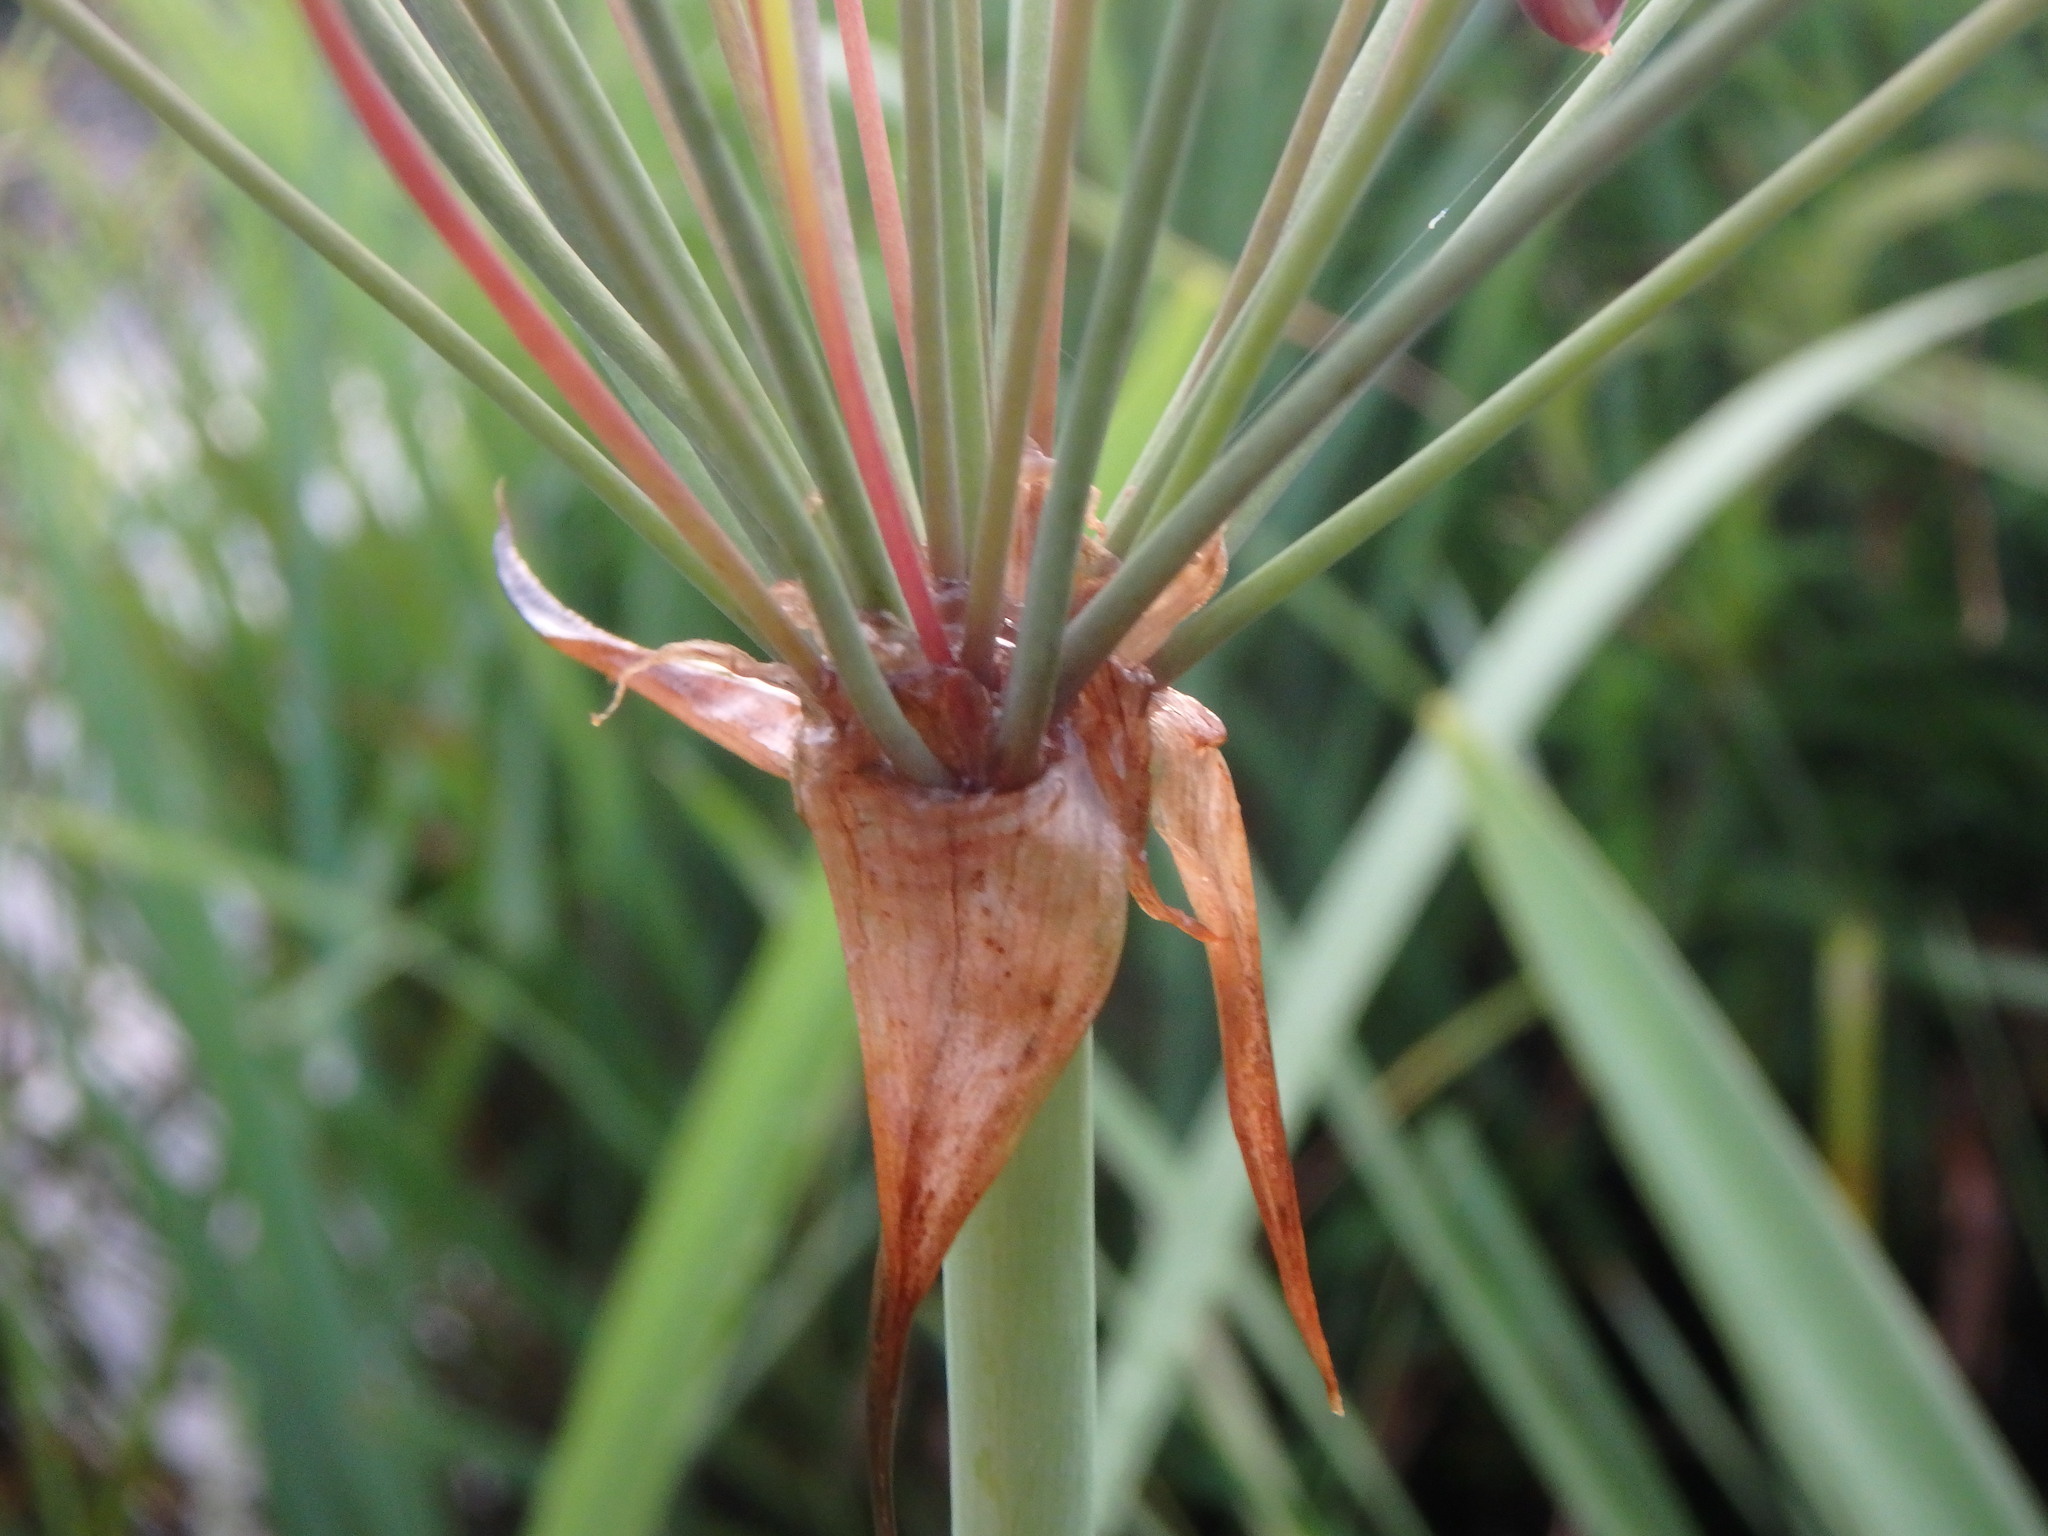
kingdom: Plantae
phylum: Tracheophyta
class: Liliopsida
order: Alismatales
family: Butomaceae
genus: Butomus
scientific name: Butomus umbellatus
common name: Flowering-rush
